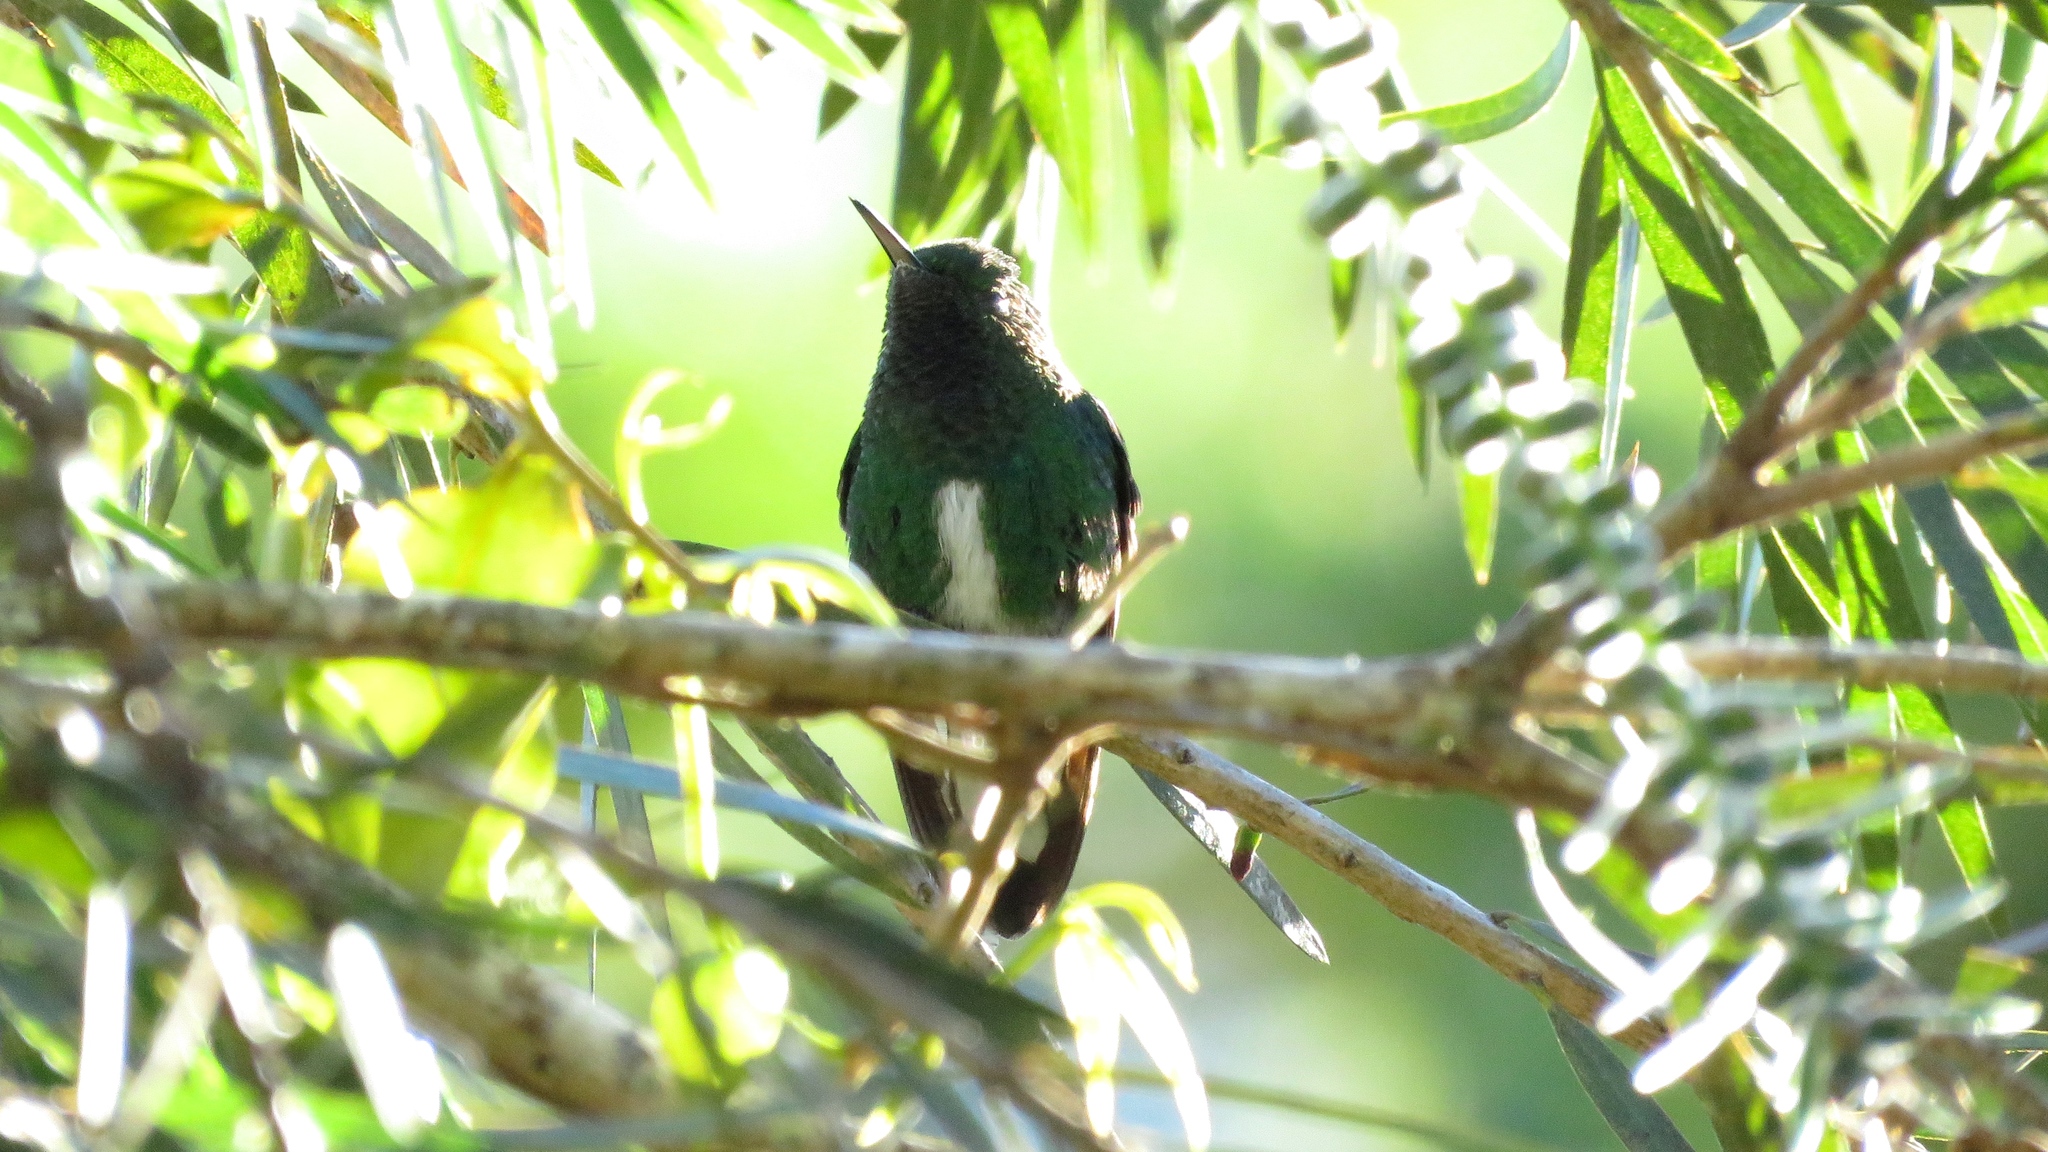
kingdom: Animalia
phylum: Chordata
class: Aves
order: Apodiformes
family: Trochilidae
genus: Microchera
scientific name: Microchera chionura
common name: White-tailed emerald
